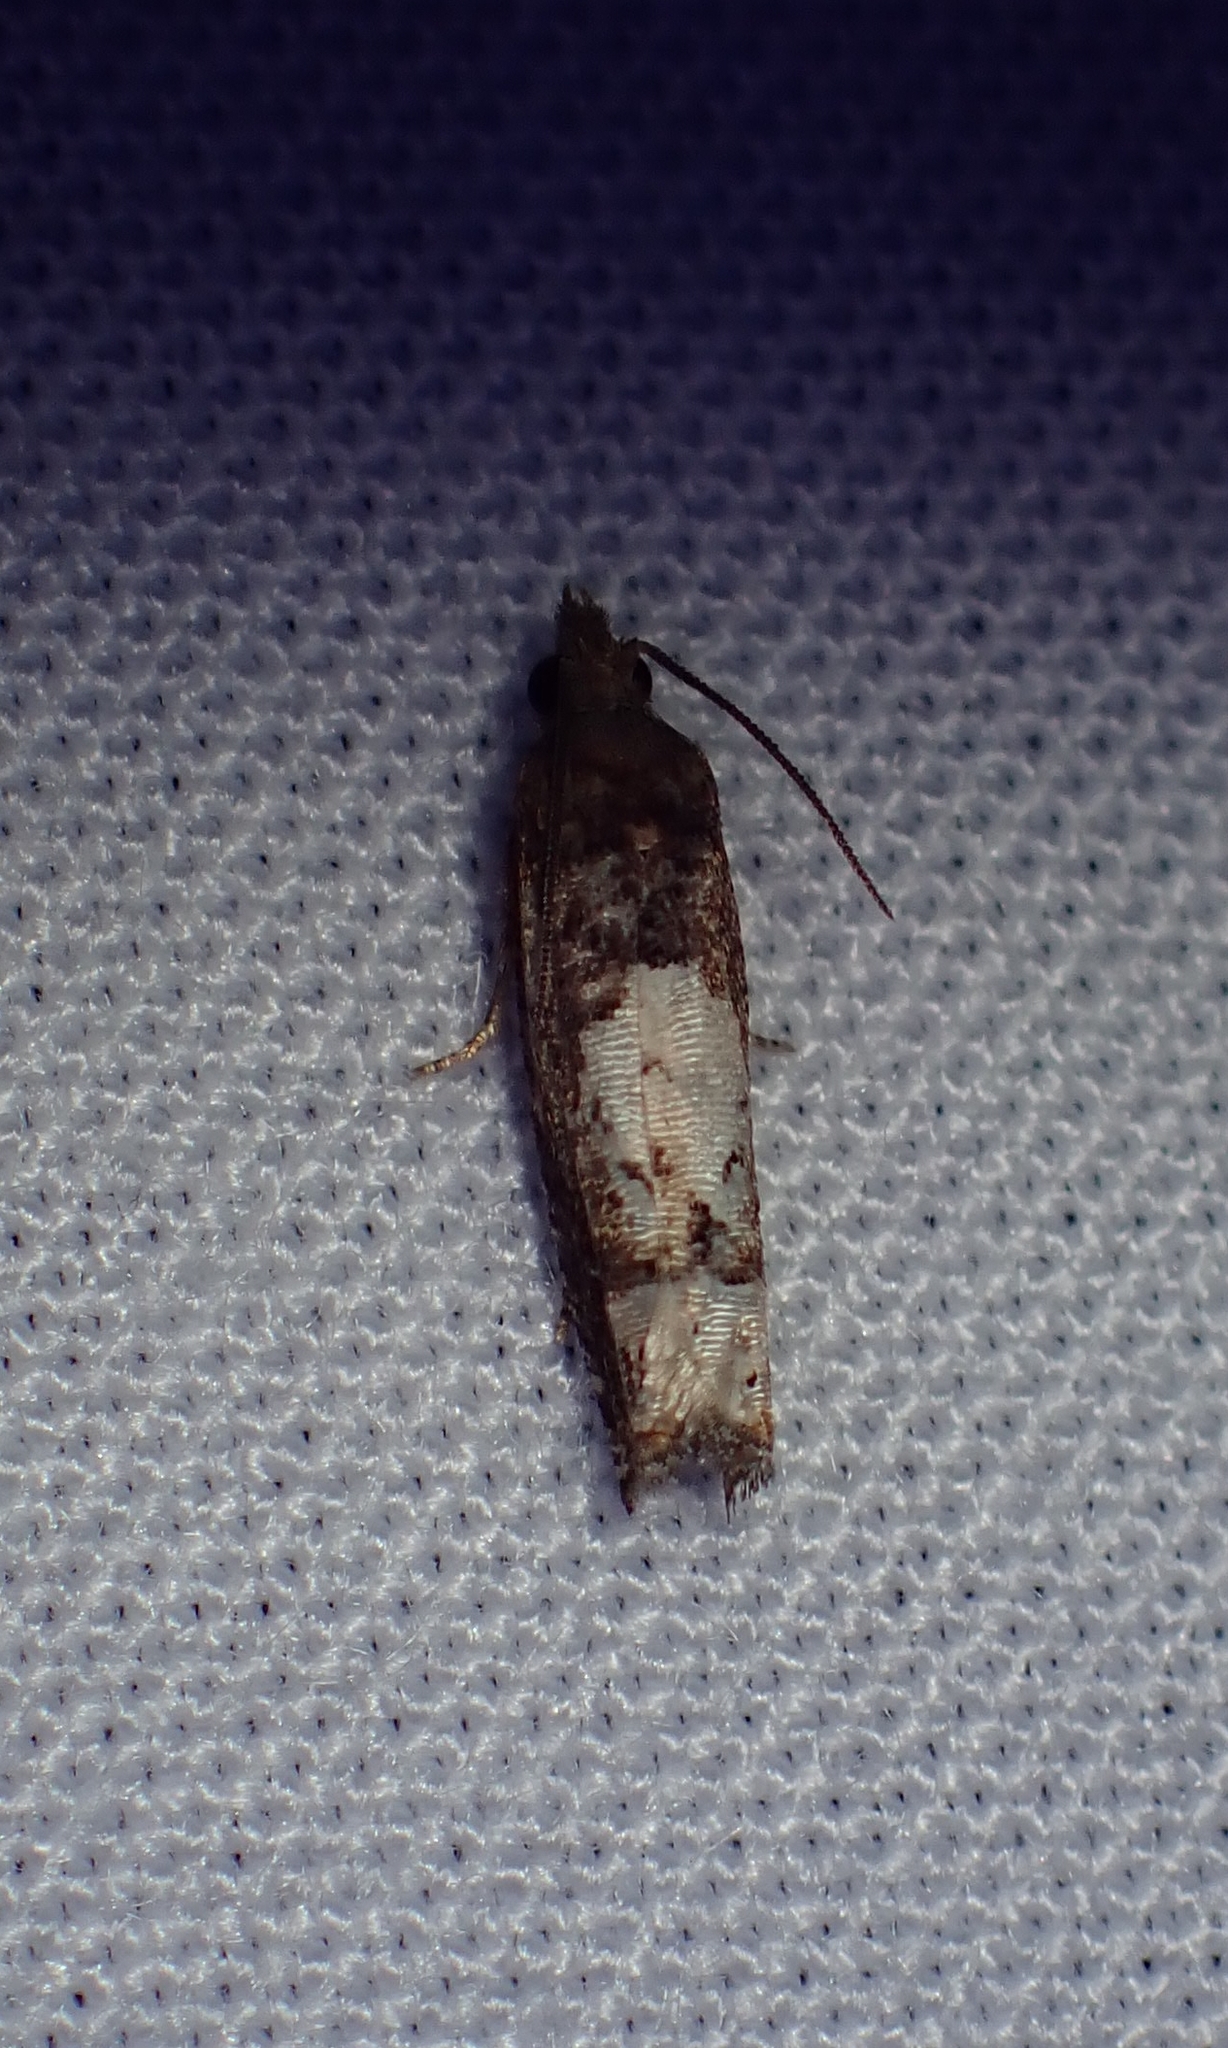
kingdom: Animalia
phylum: Arthropoda
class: Insecta
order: Lepidoptera
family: Tortricidae
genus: Eucosma
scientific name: Eucosma parmatana
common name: Aster eucosma moth
